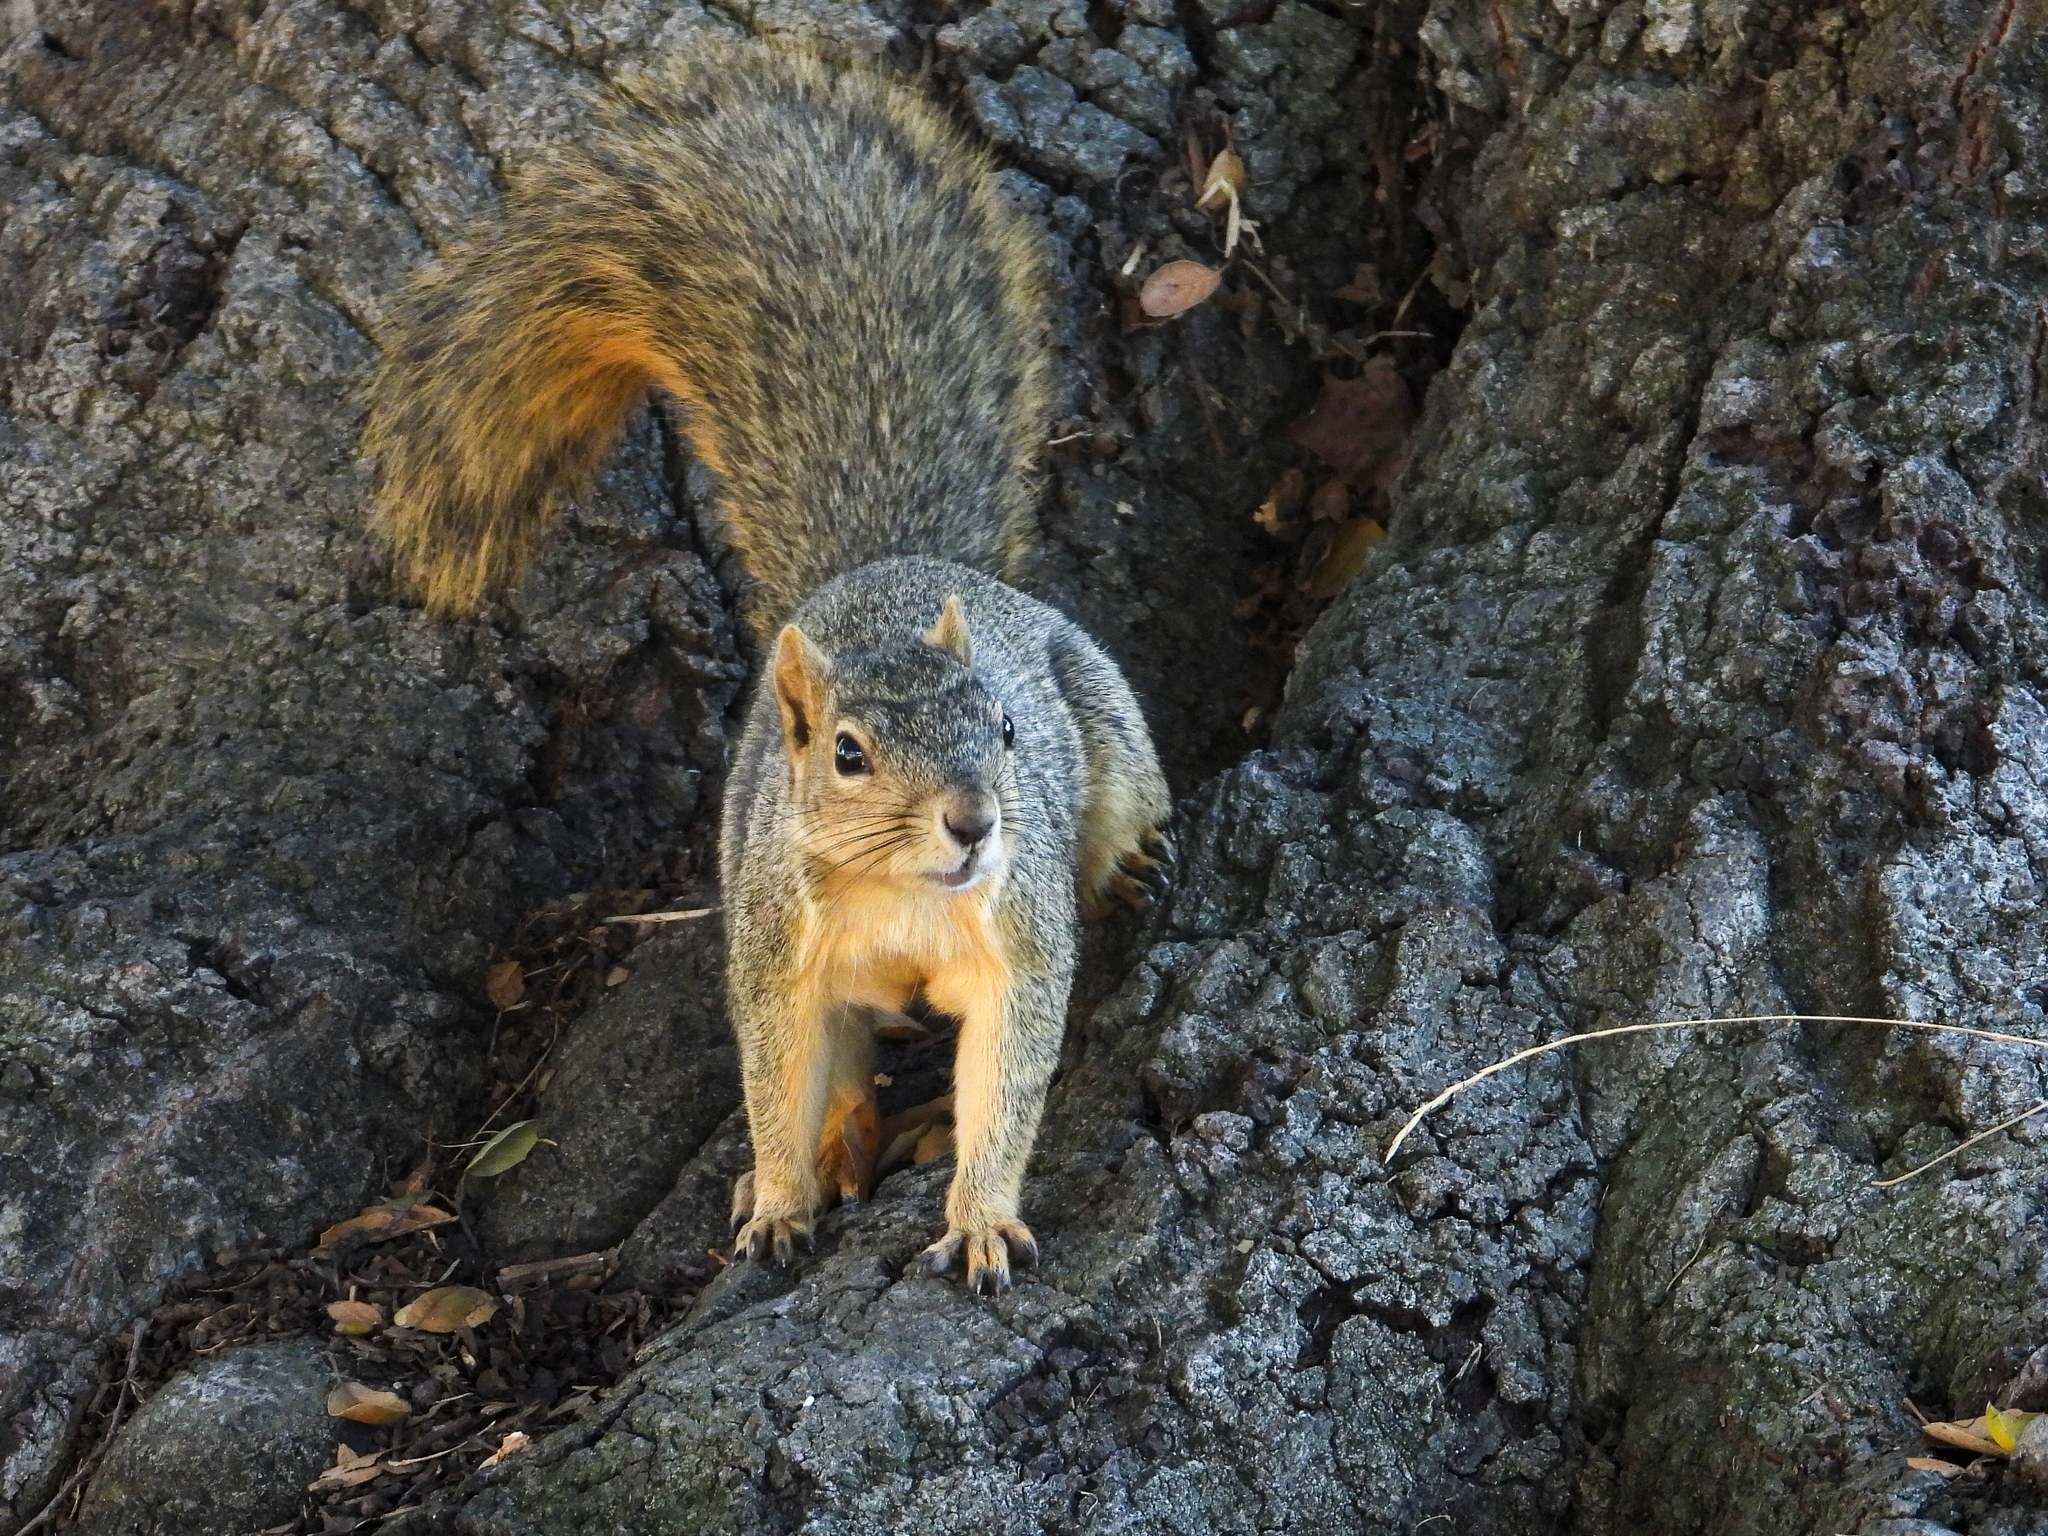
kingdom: Animalia
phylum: Chordata
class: Mammalia
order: Rodentia
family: Sciuridae
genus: Sciurus
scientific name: Sciurus niger
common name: Fox squirrel
